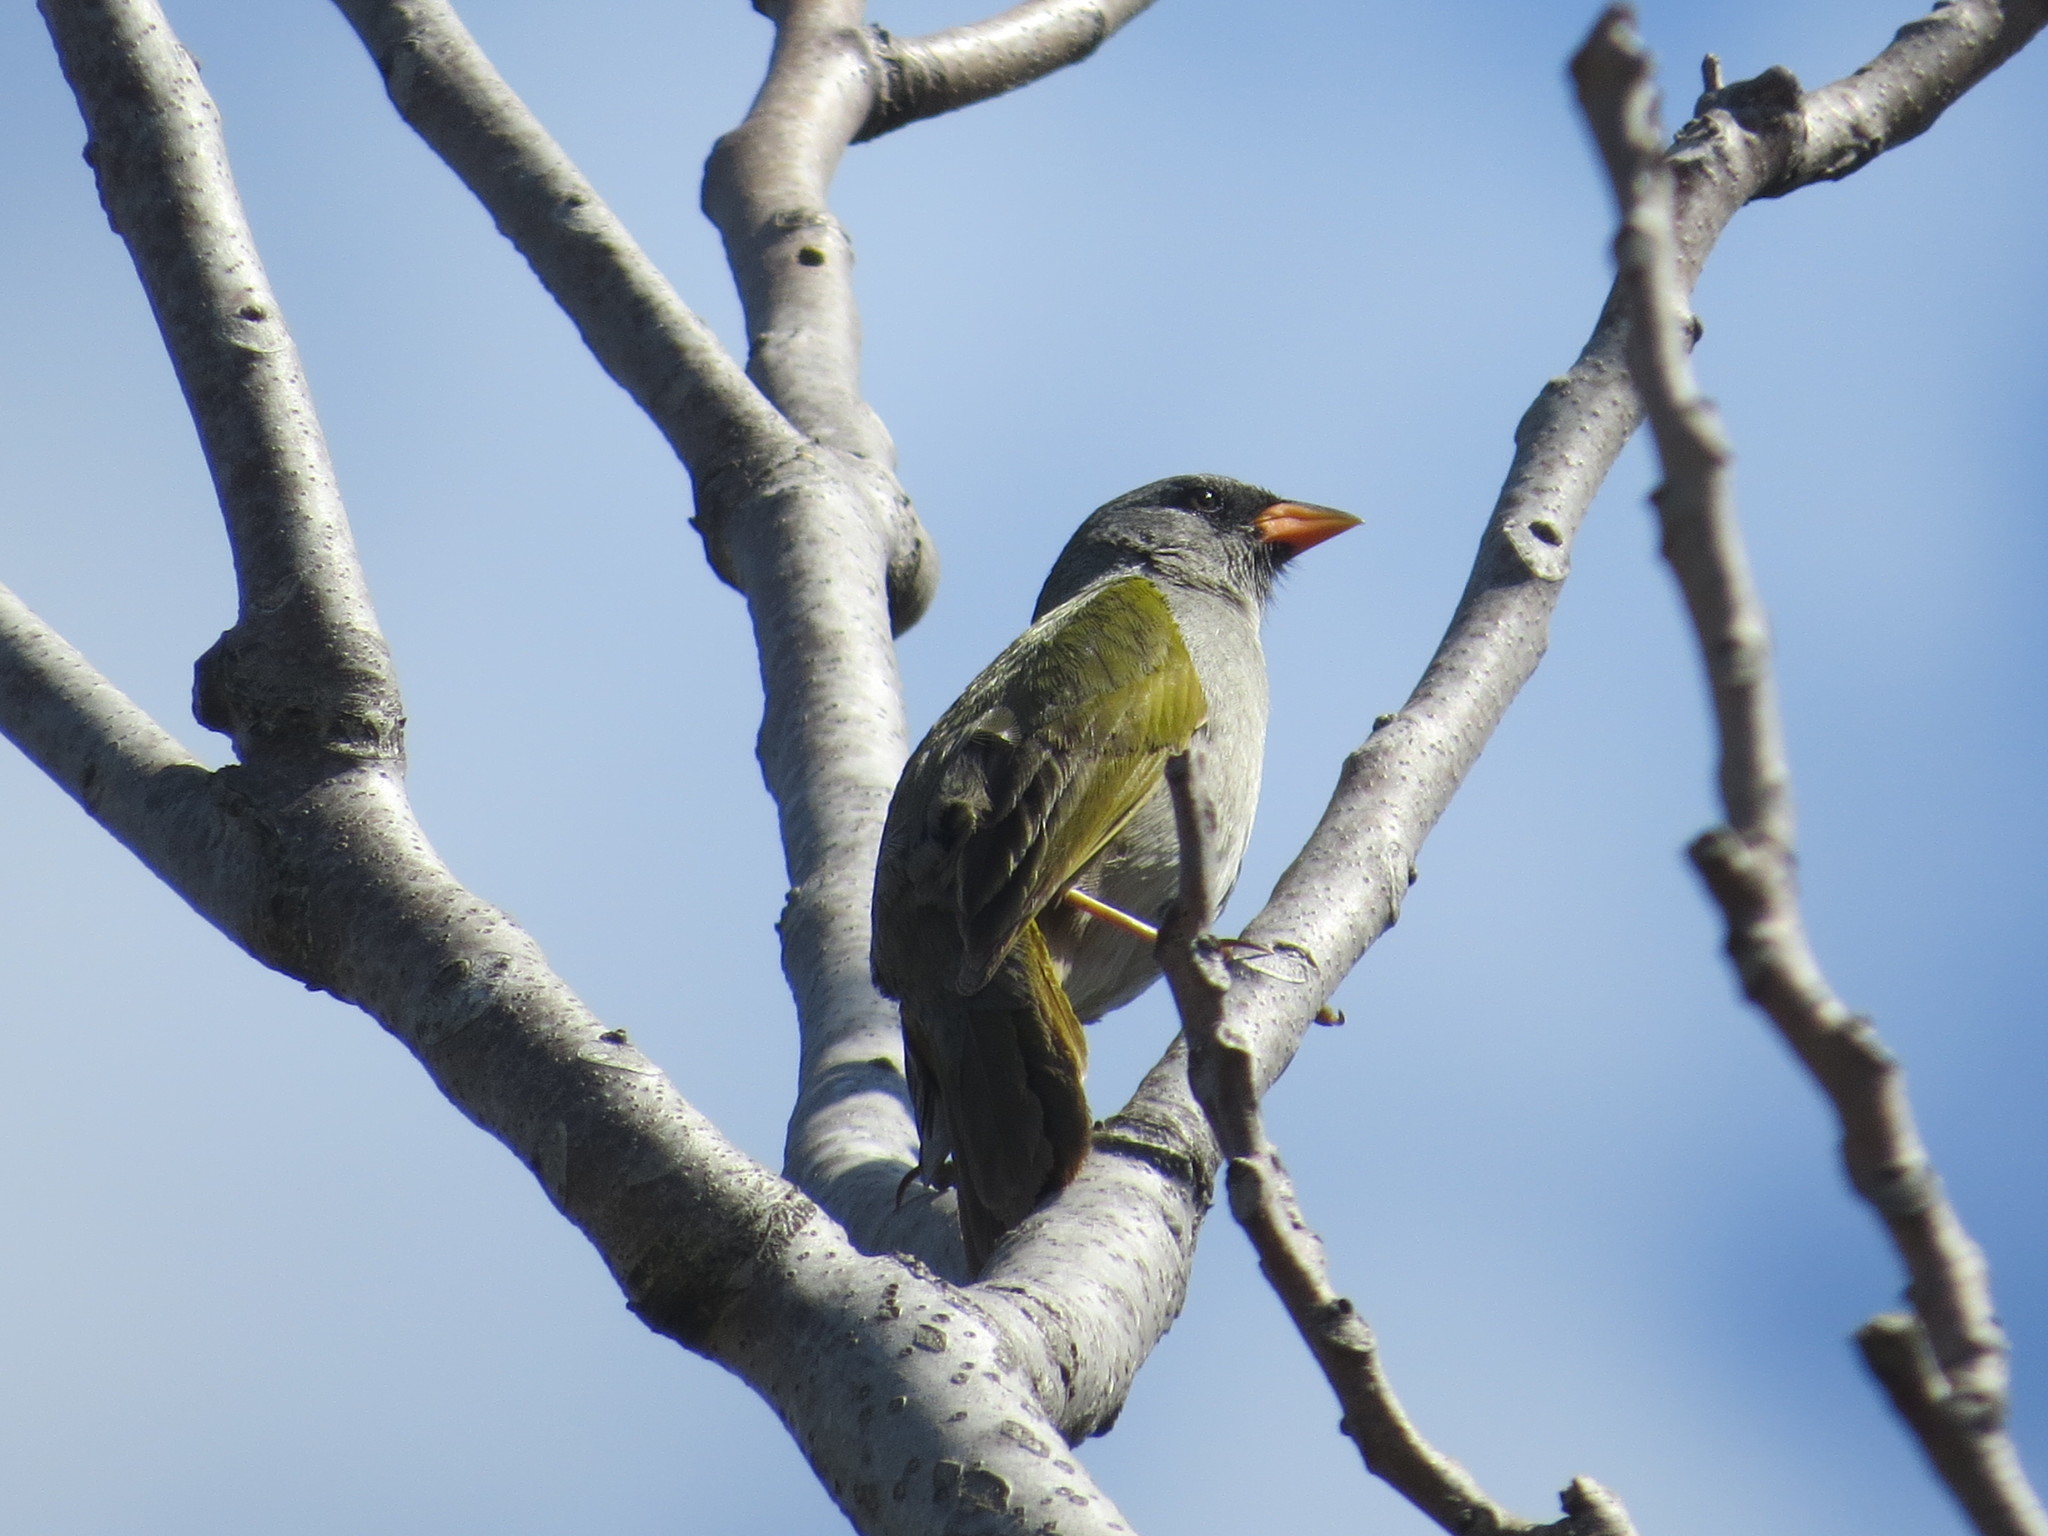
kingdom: Animalia
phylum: Chordata
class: Aves
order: Passeriformes
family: Thraupidae
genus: Embernagra
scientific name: Embernagra platensis
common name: Pampa finch
